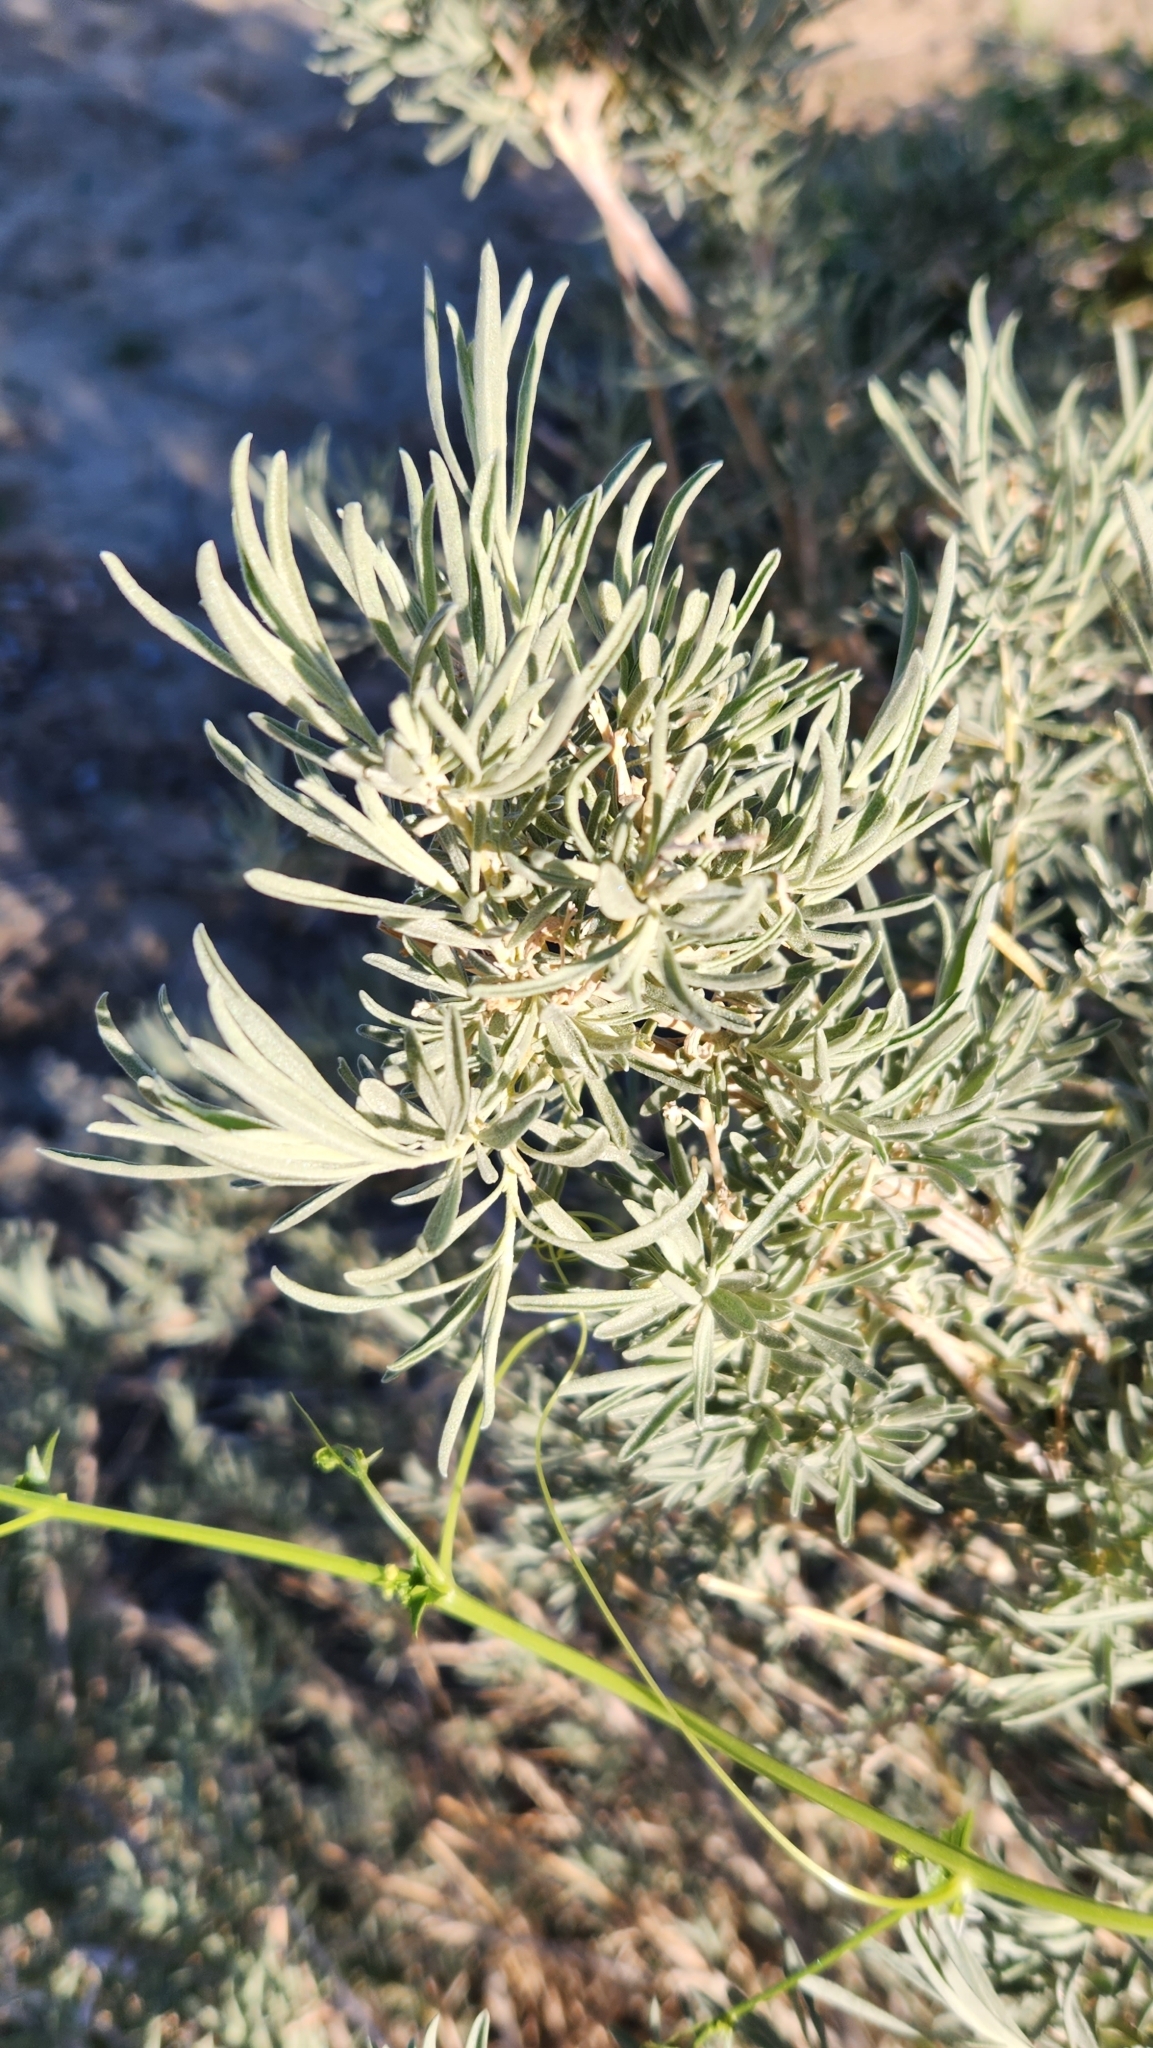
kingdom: Plantae
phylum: Tracheophyta
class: Magnoliopsida
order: Caryophyllales
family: Amaranthaceae
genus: Atriplex
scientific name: Atriplex canescens
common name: Four-wing saltbush
